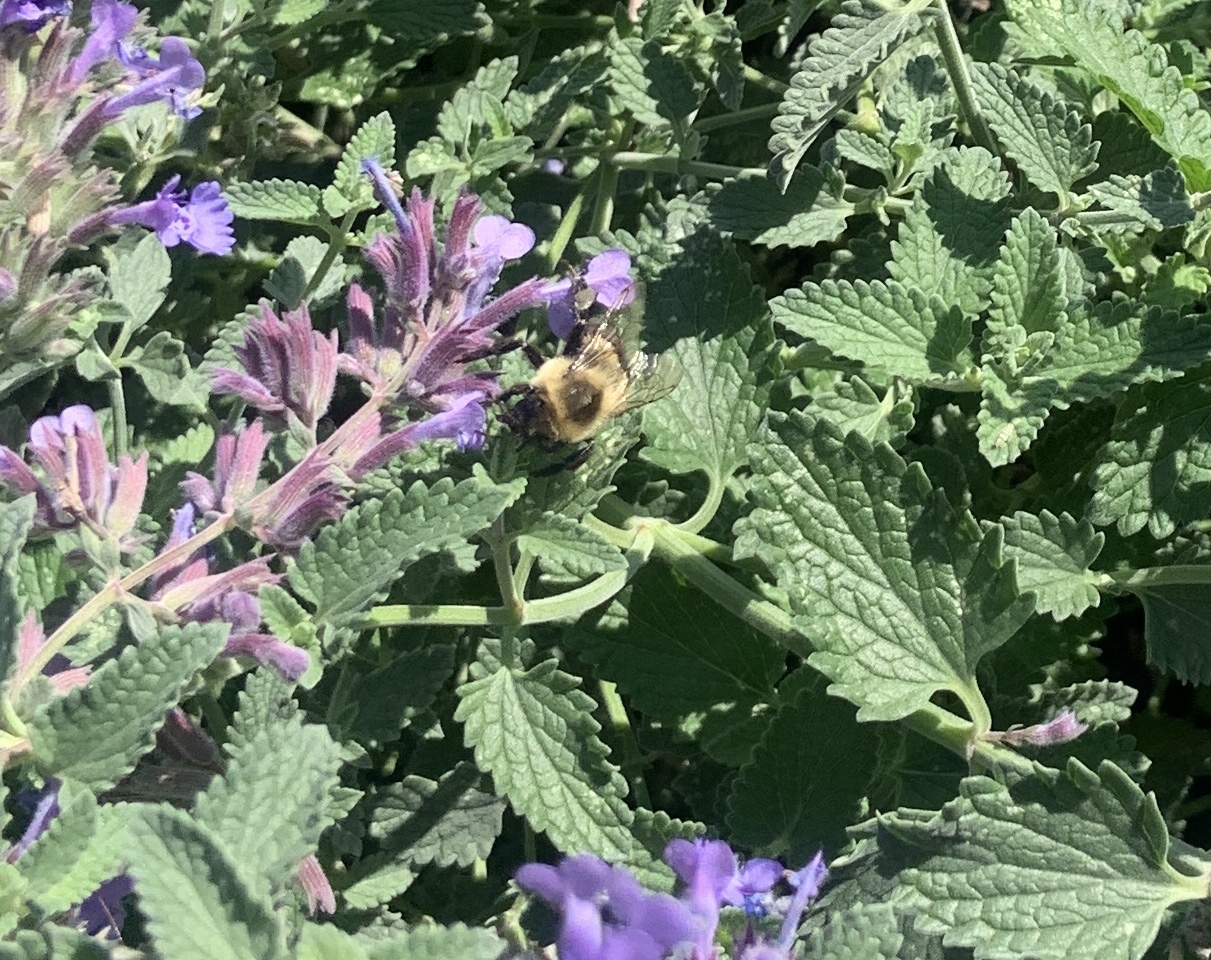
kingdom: Animalia
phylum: Arthropoda
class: Insecta
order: Hymenoptera
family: Apidae
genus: Bombus
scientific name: Bombus impatiens
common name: Common eastern bumble bee
